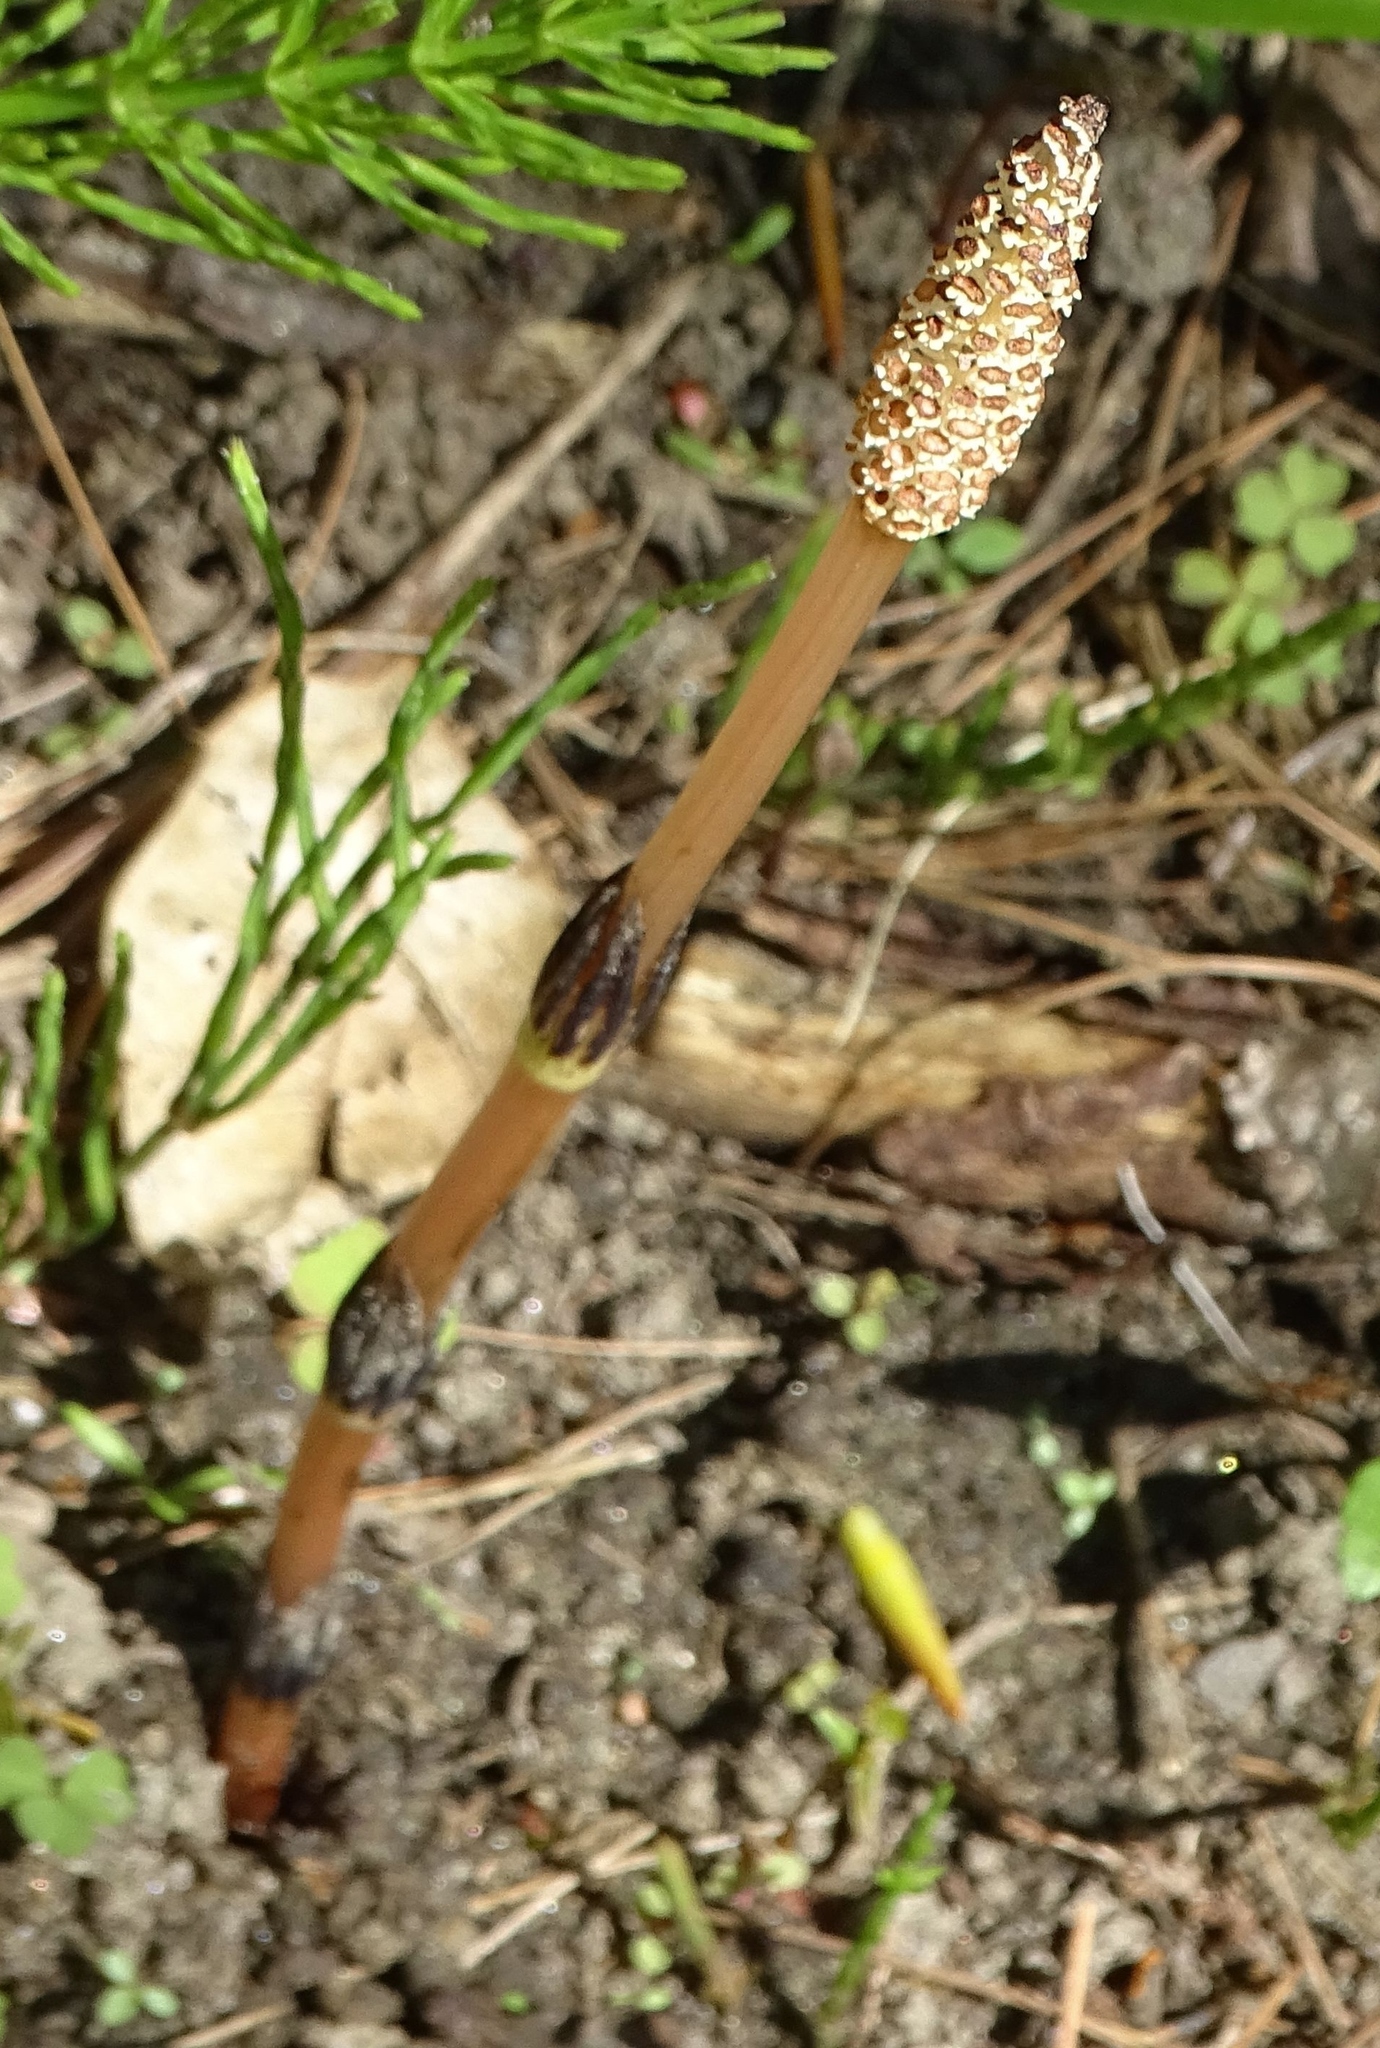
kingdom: Plantae
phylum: Tracheophyta
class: Polypodiopsida
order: Equisetales
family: Equisetaceae
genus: Equisetum
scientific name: Equisetum arvense
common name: Field horsetail
